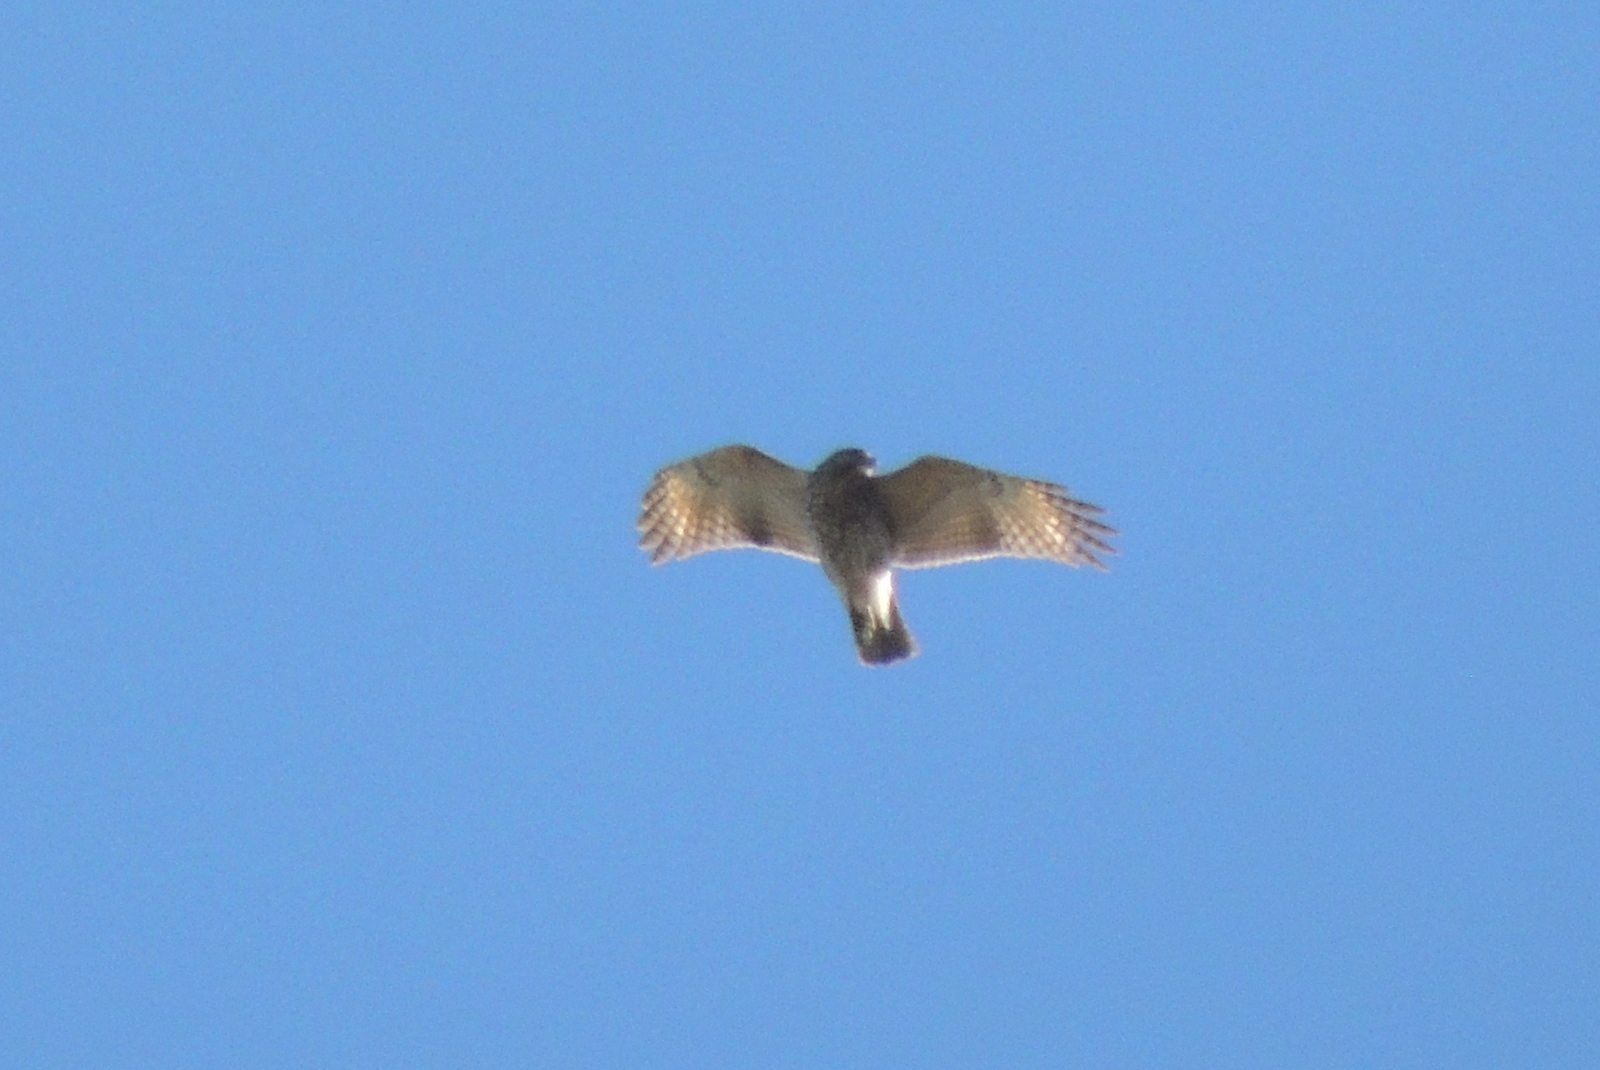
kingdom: Animalia
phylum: Chordata
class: Aves
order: Accipitriformes
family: Accipitridae
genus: Buteo
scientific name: Buteo lineatus
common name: Red-shouldered hawk
